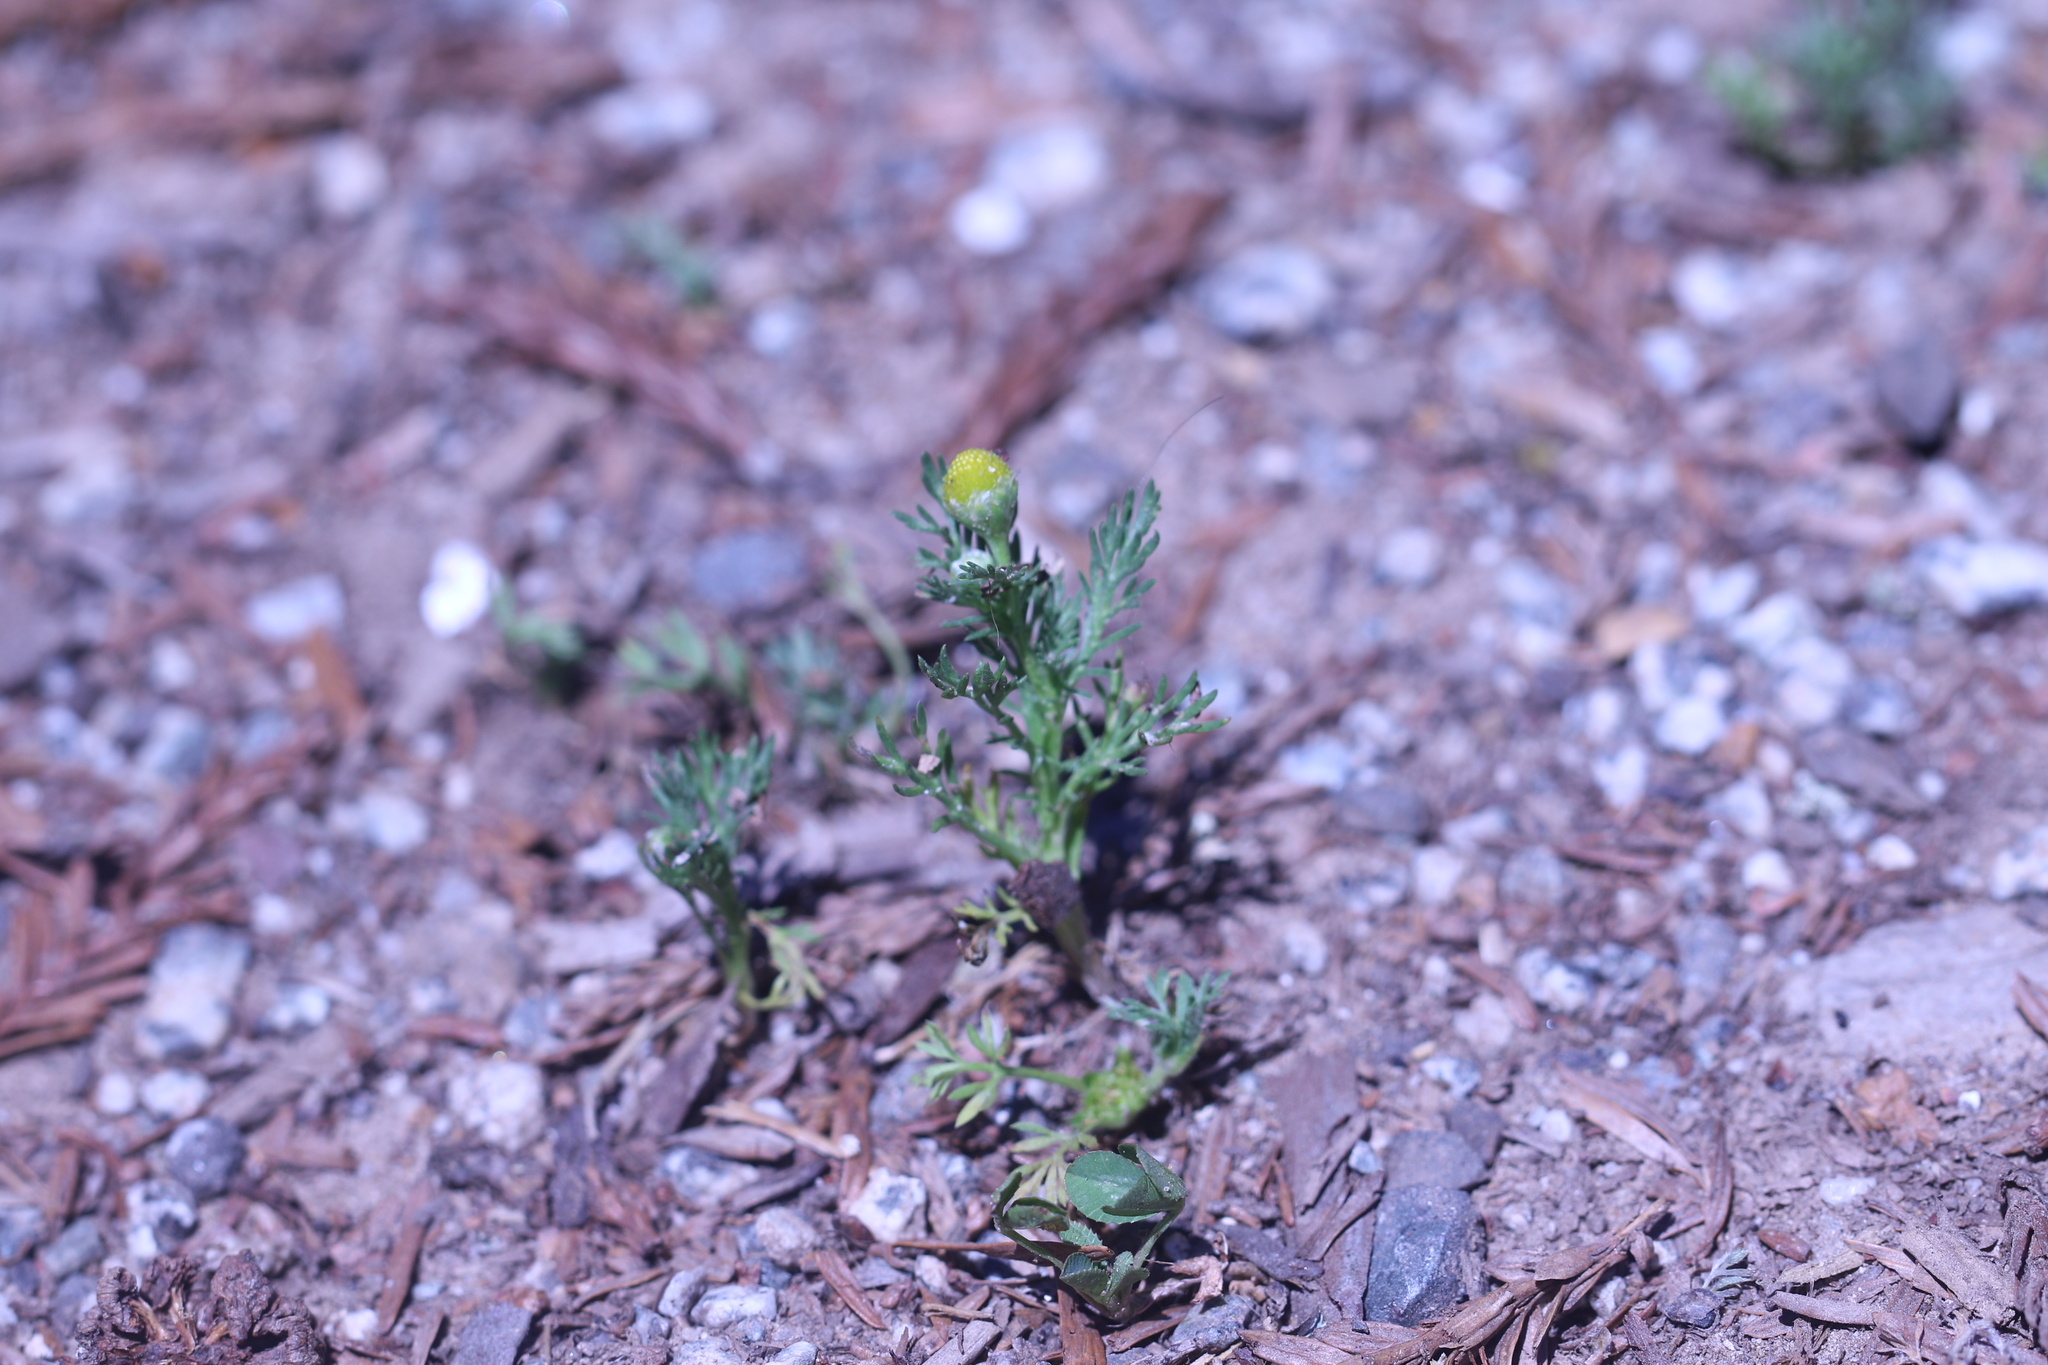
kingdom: Plantae
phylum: Tracheophyta
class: Magnoliopsida
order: Asterales
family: Asteraceae
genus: Matricaria
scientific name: Matricaria discoidea
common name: Disc mayweed
